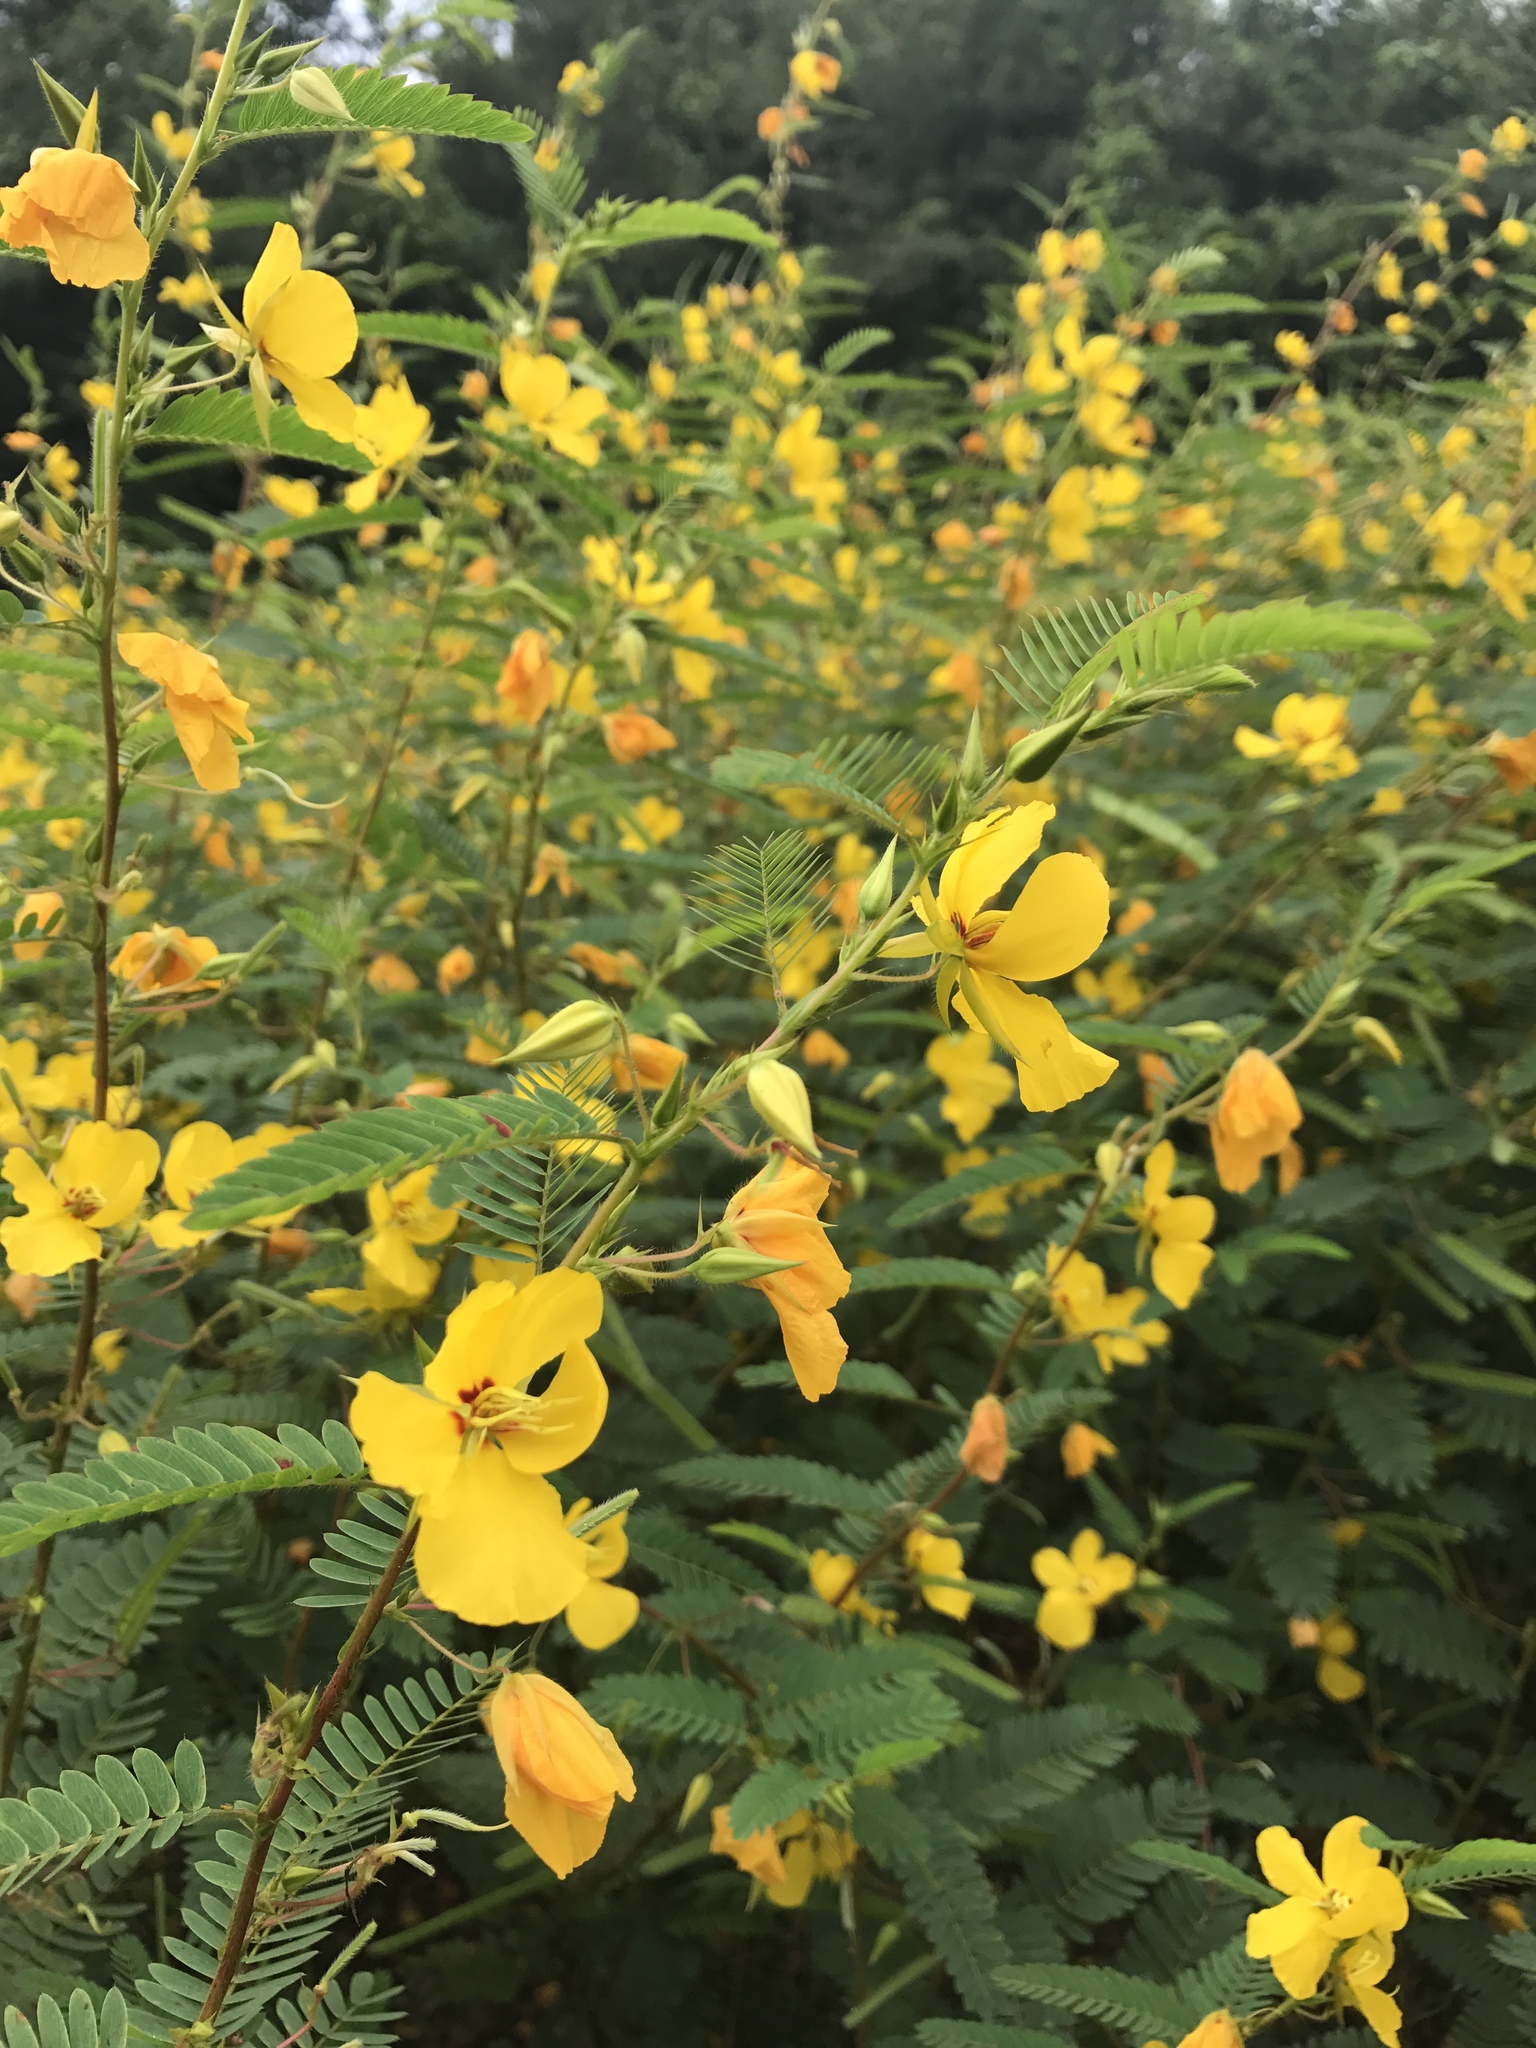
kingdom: Plantae
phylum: Tracheophyta
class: Magnoliopsida
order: Fabales
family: Fabaceae
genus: Chamaecrista
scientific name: Chamaecrista fasciculata
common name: Golden cassia
